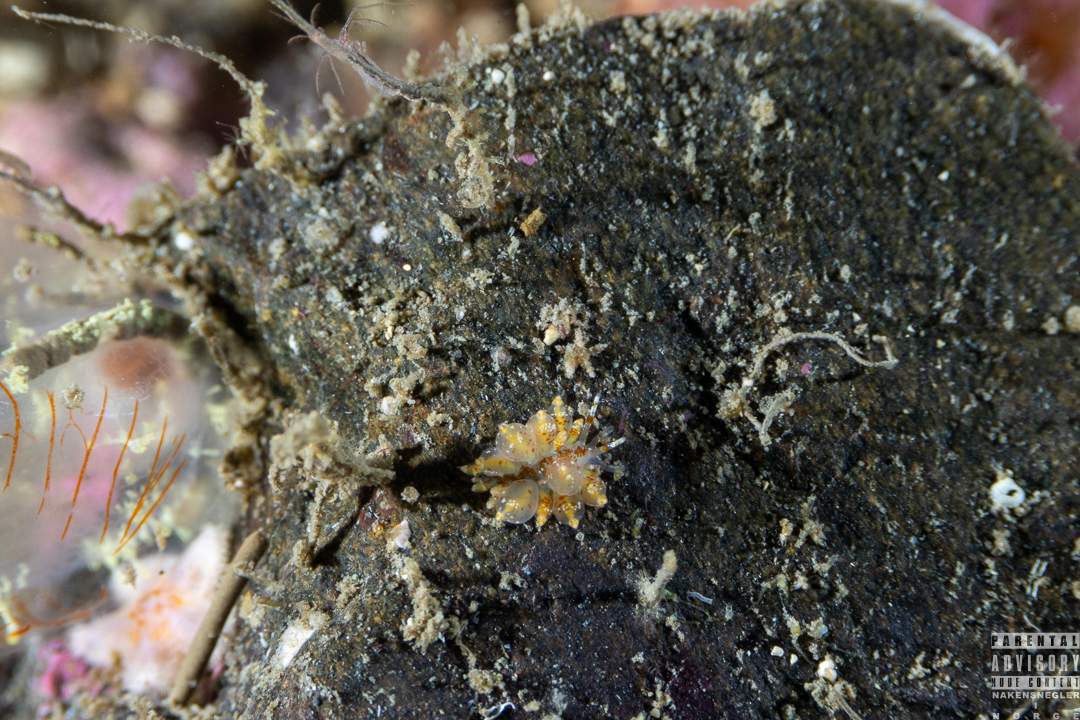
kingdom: Animalia
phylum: Mollusca
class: Gastropoda
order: Nudibranchia
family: Eubranchidae
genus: Amphorina
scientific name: Amphorina pallida
